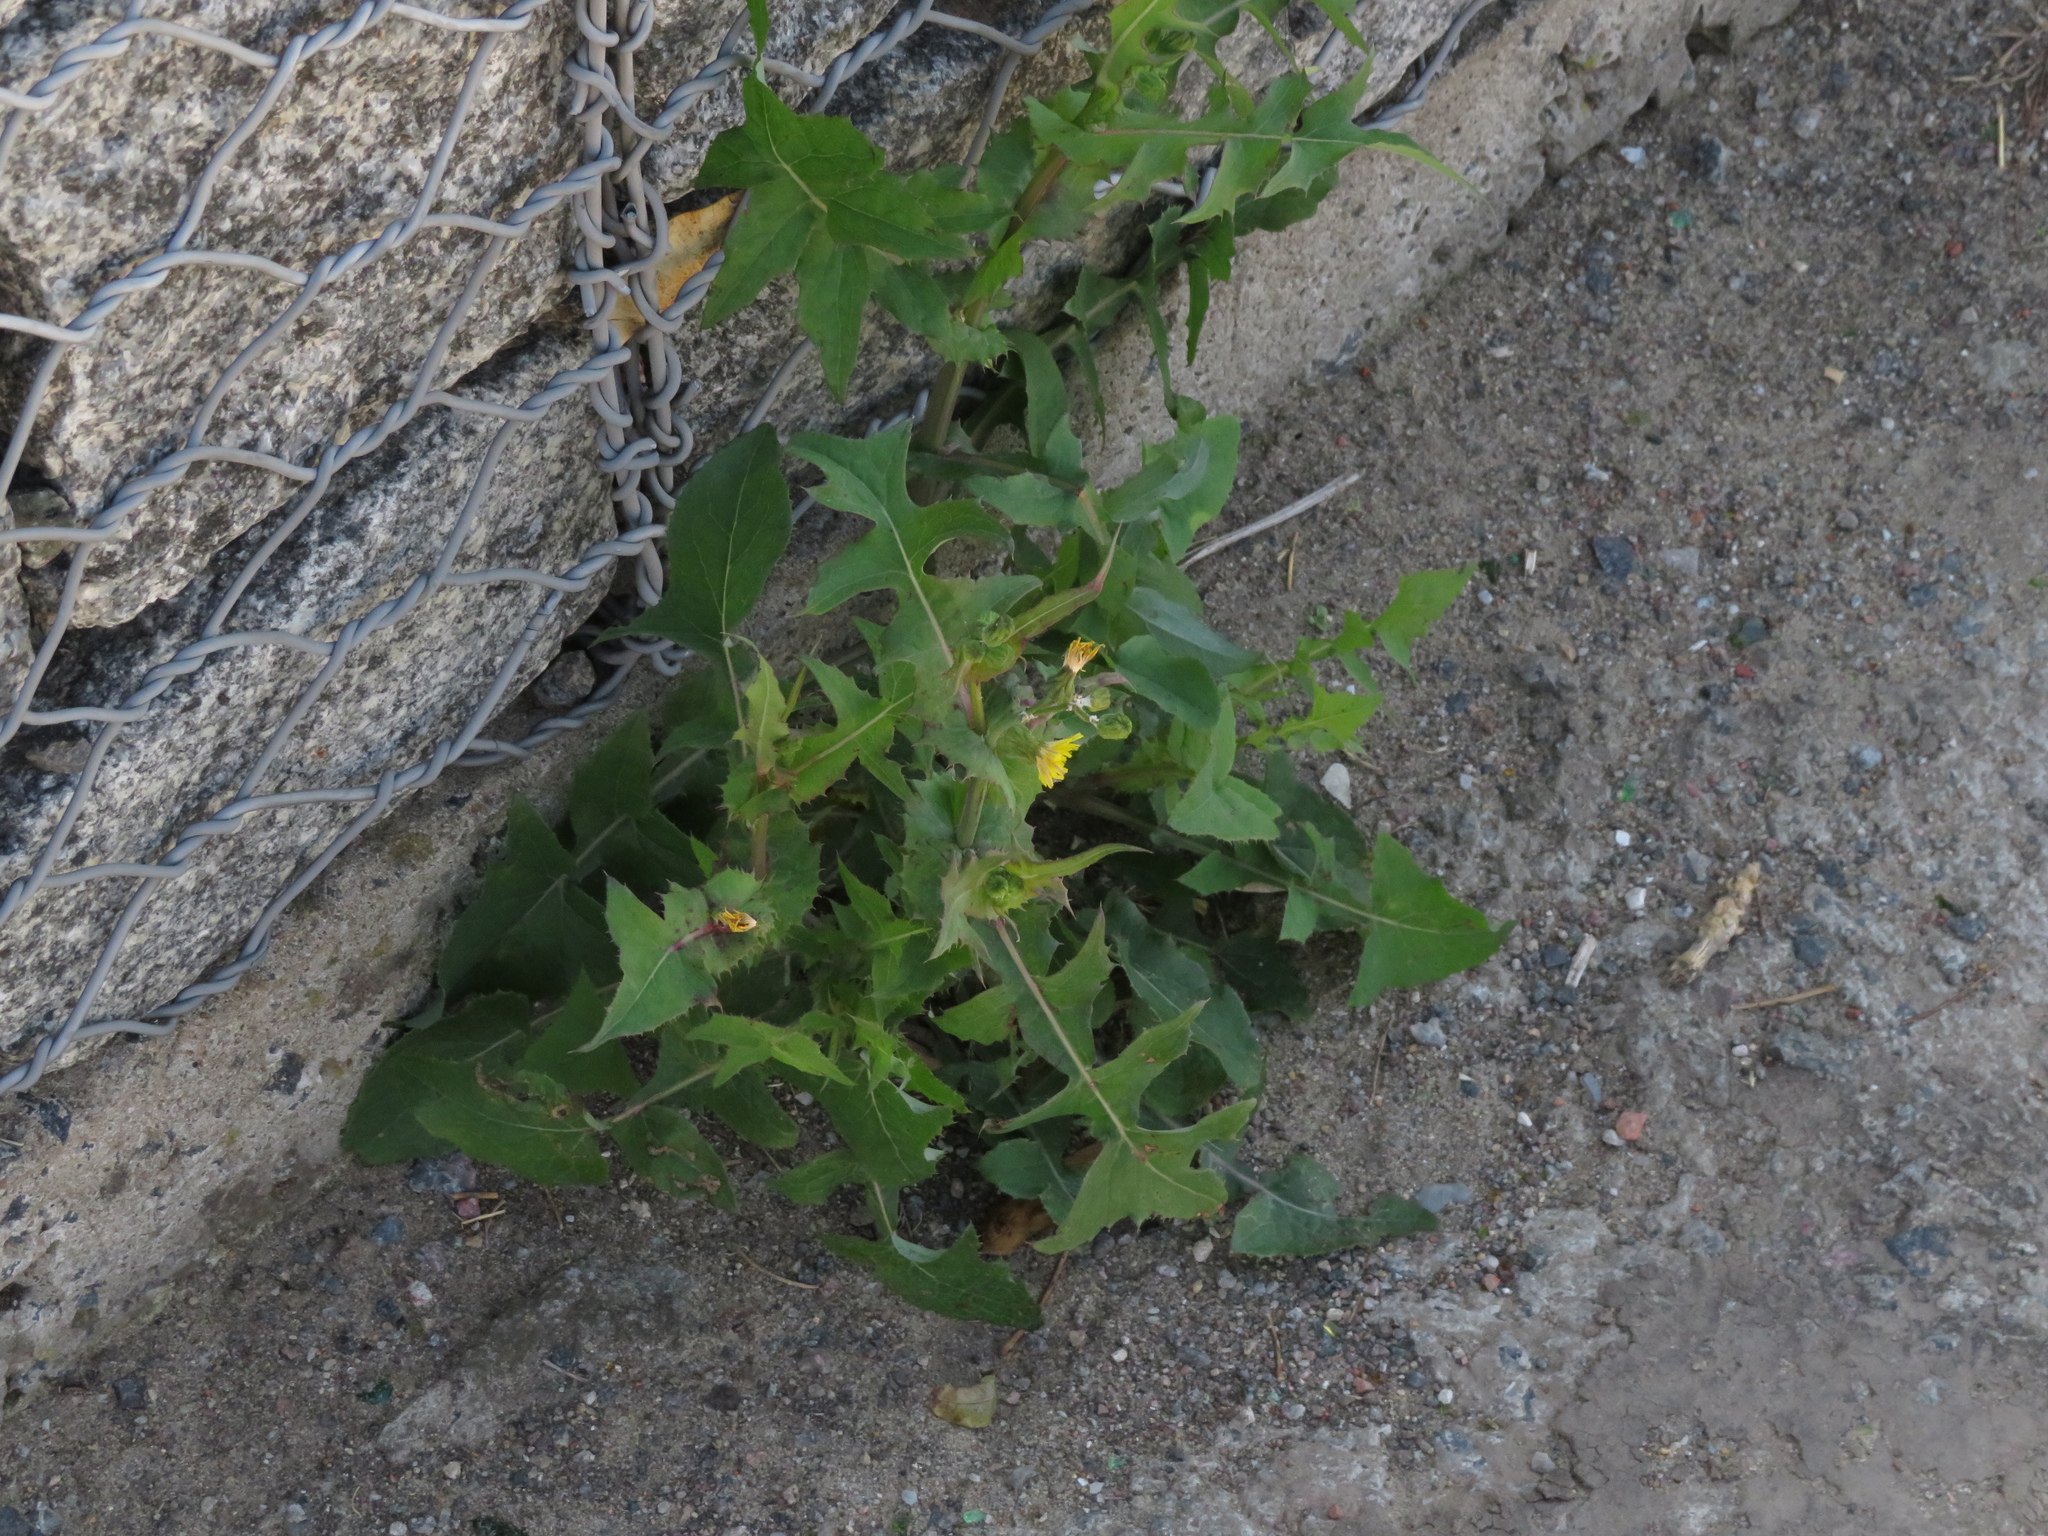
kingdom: Plantae
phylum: Tracheophyta
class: Magnoliopsida
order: Asterales
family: Asteraceae
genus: Sonchus
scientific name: Sonchus oleraceus
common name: Common sowthistle
